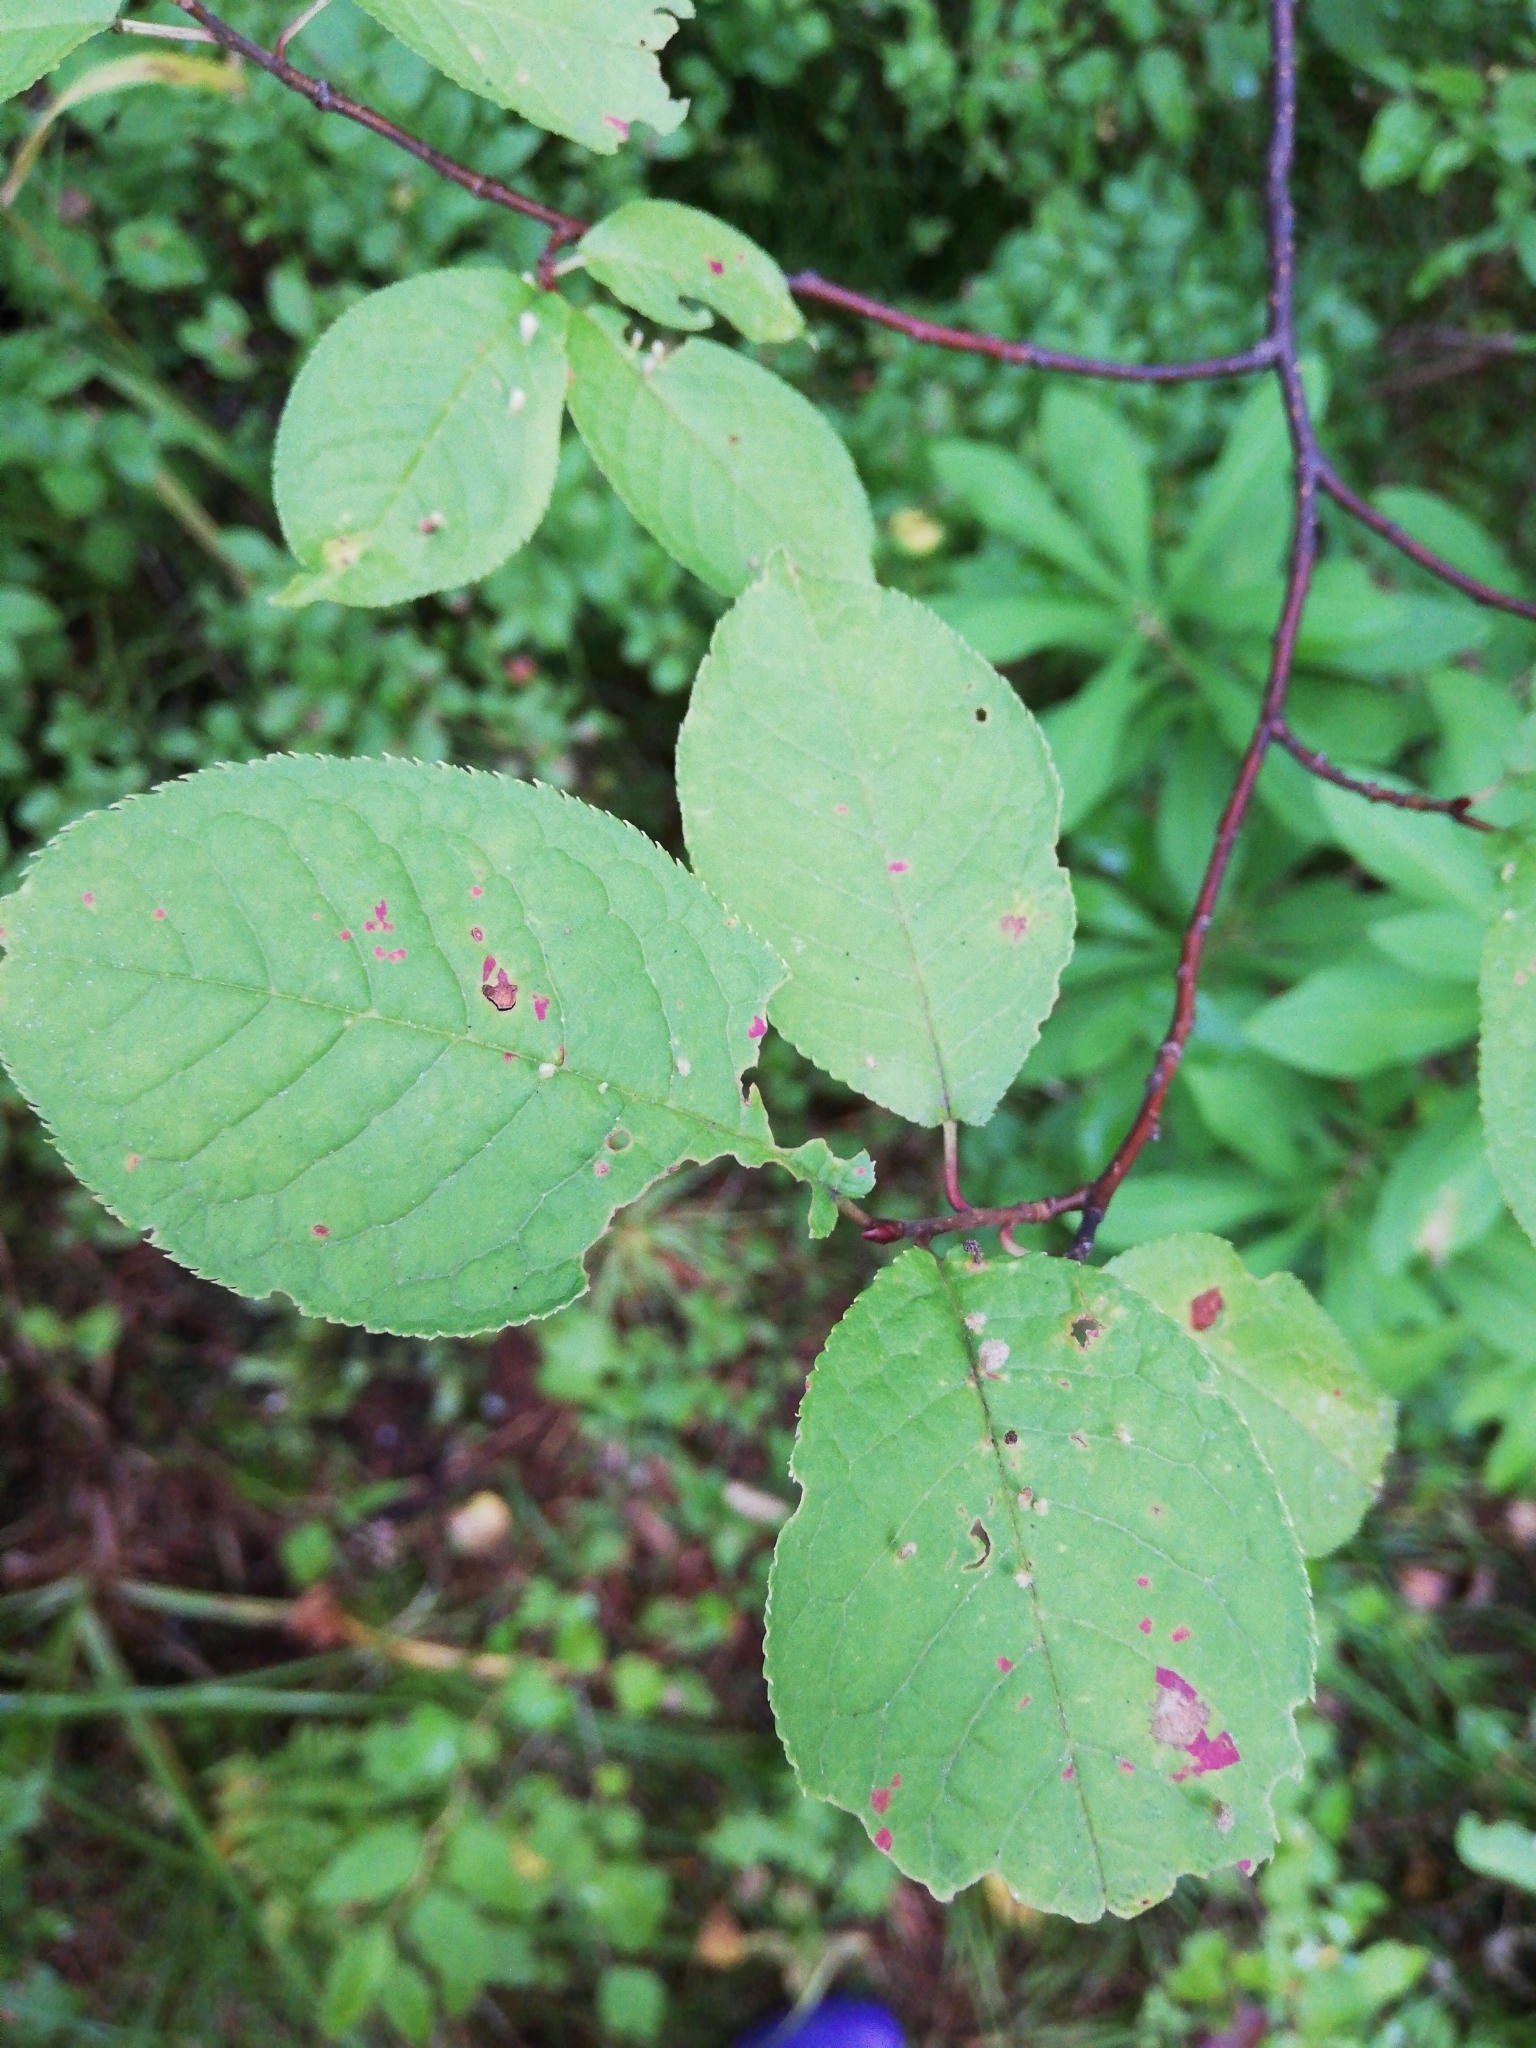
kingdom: Plantae
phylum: Tracheophyta
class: Magnoliopsida
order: Rosales
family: Rosaceae
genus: Prunus
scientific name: Prunus padus
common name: Bird cherry
